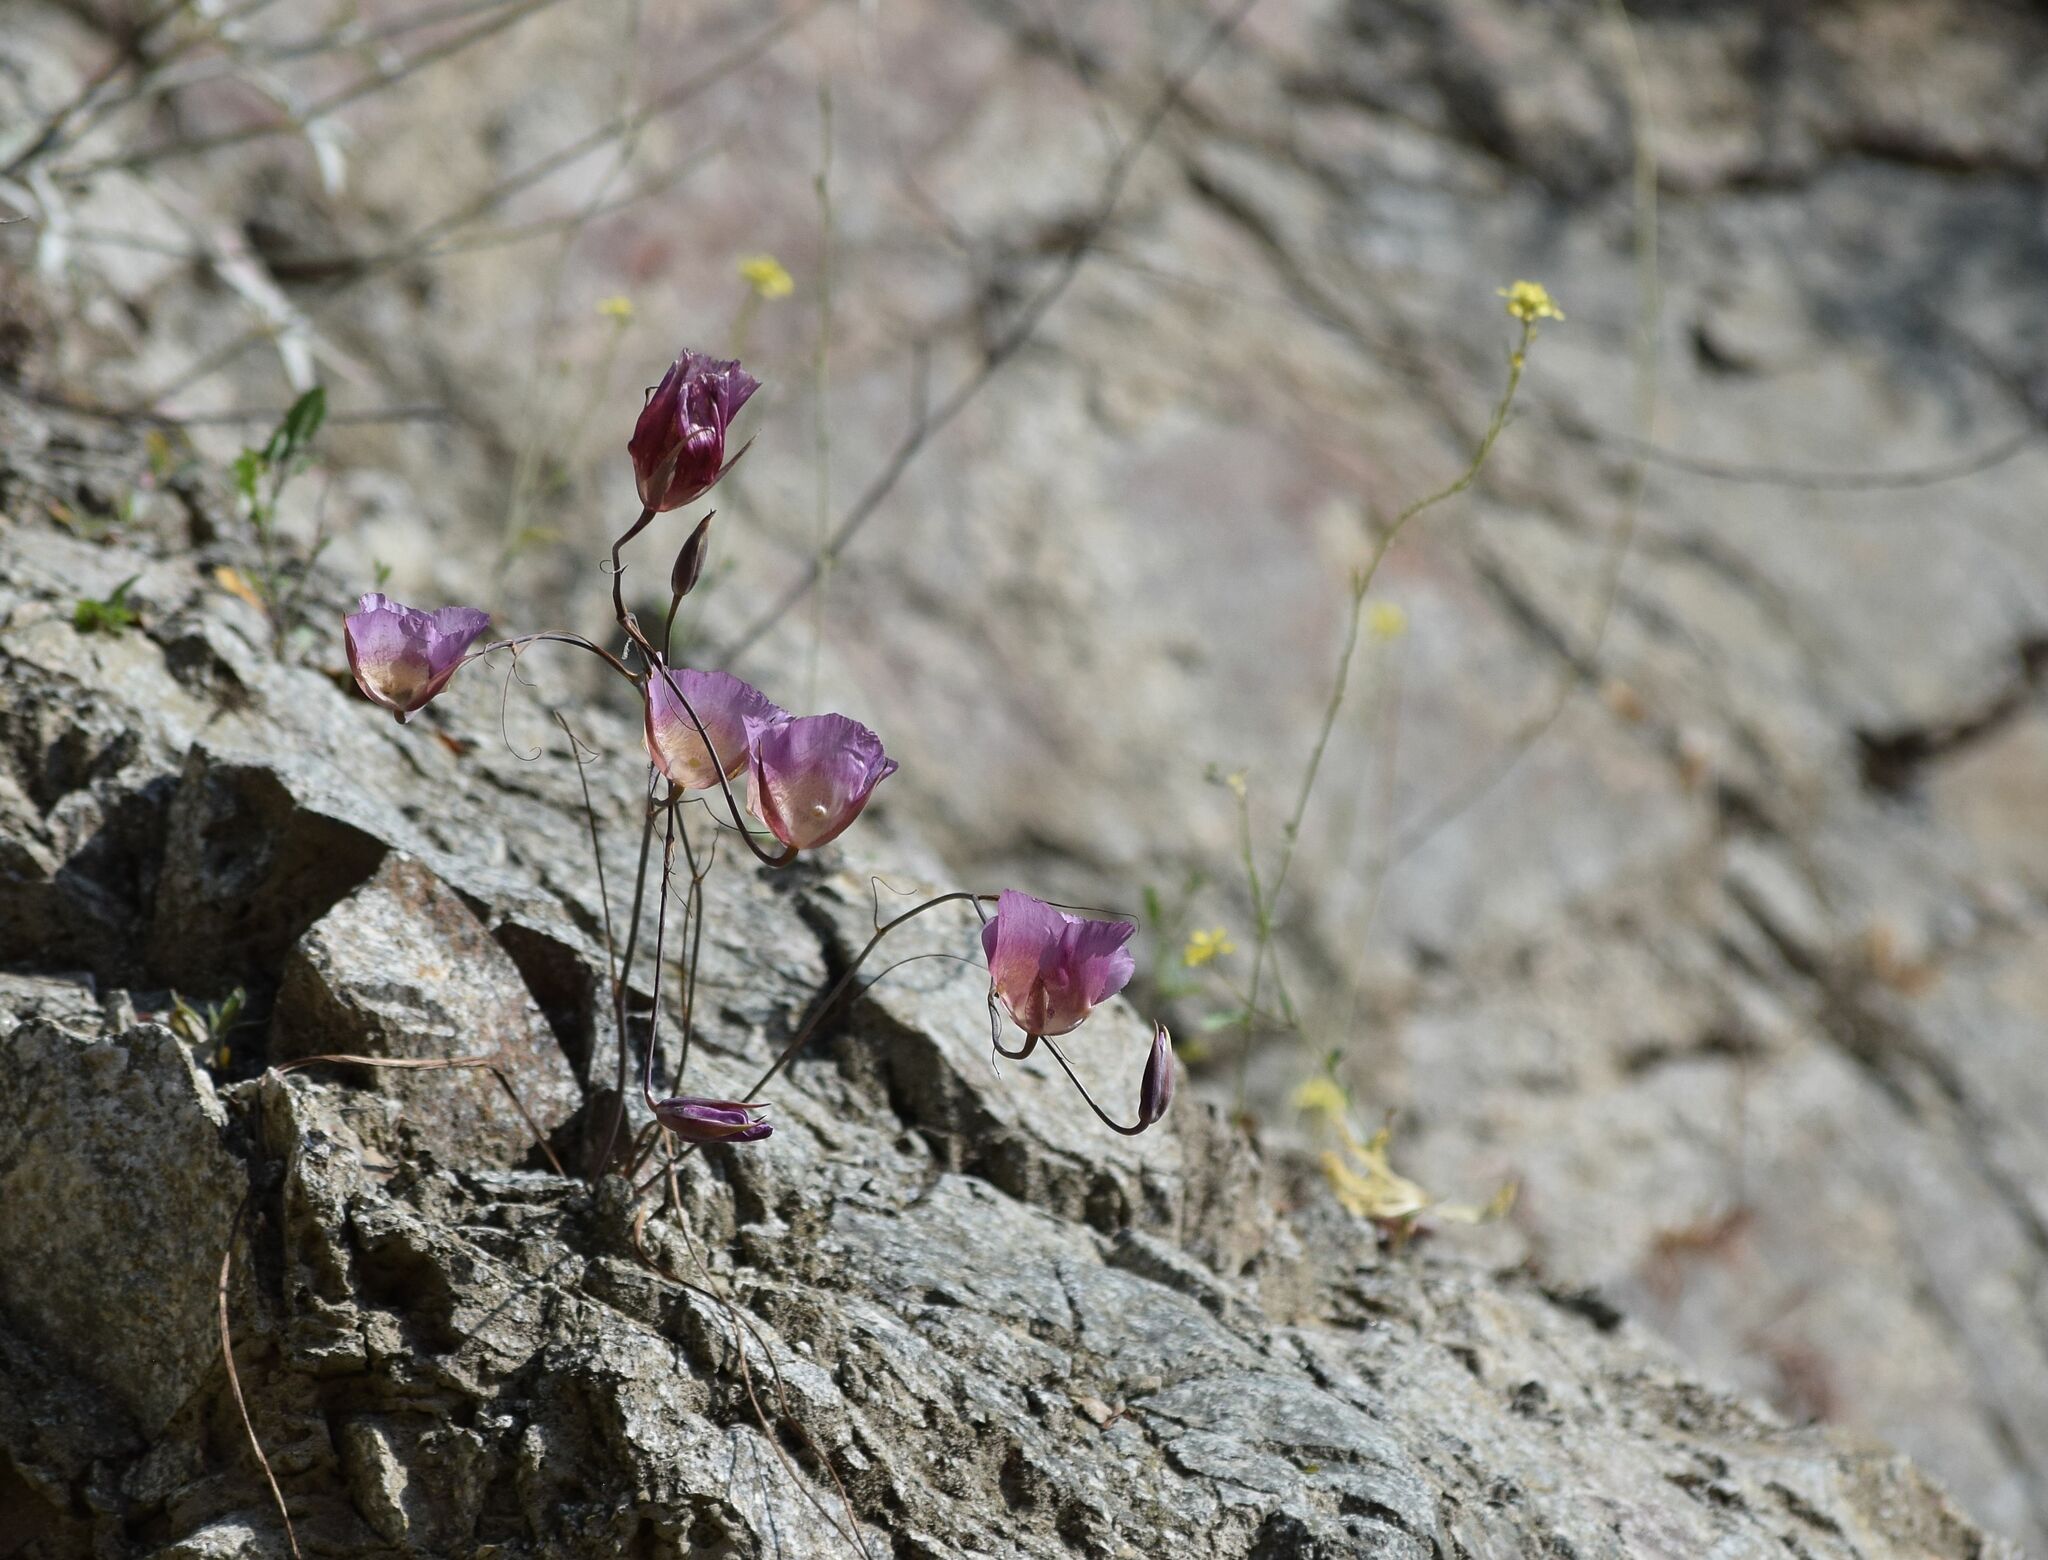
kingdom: Plantae
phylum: Tracheophyta
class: Liliopsida
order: Liliales
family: Liliaceae
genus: Calochortus
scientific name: Calochortus plummerae
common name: Plummer's mariposa-lily
